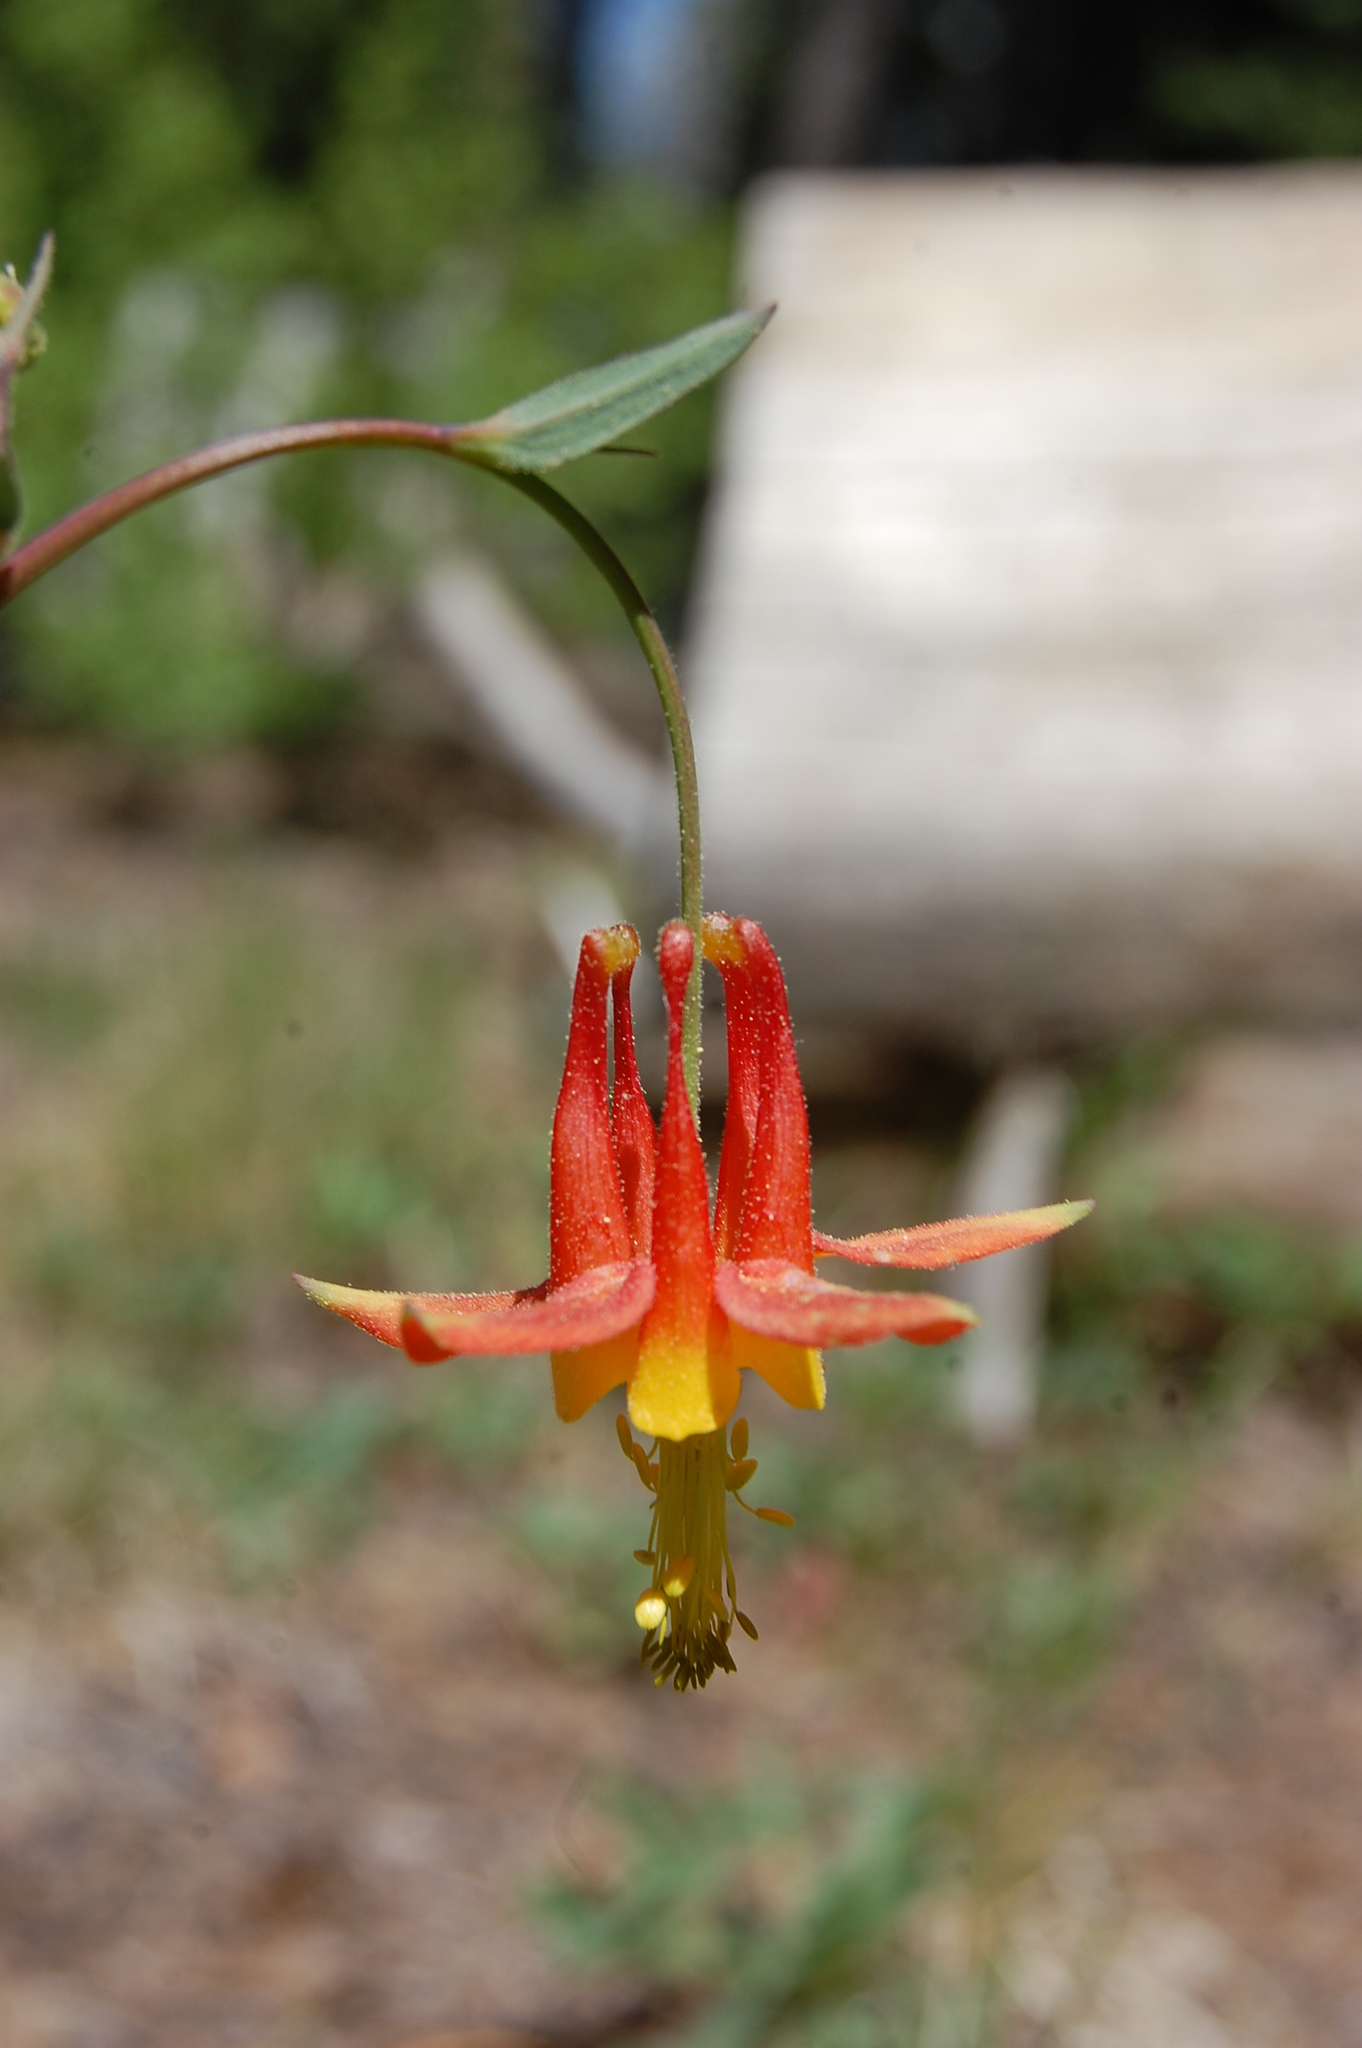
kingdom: Plantae
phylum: Tracheophyta
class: Magnoliopsida
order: Ranunculales
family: Ranunculaceae
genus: Aquilegia
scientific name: Aquilegia formosa
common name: Sitka columbine
